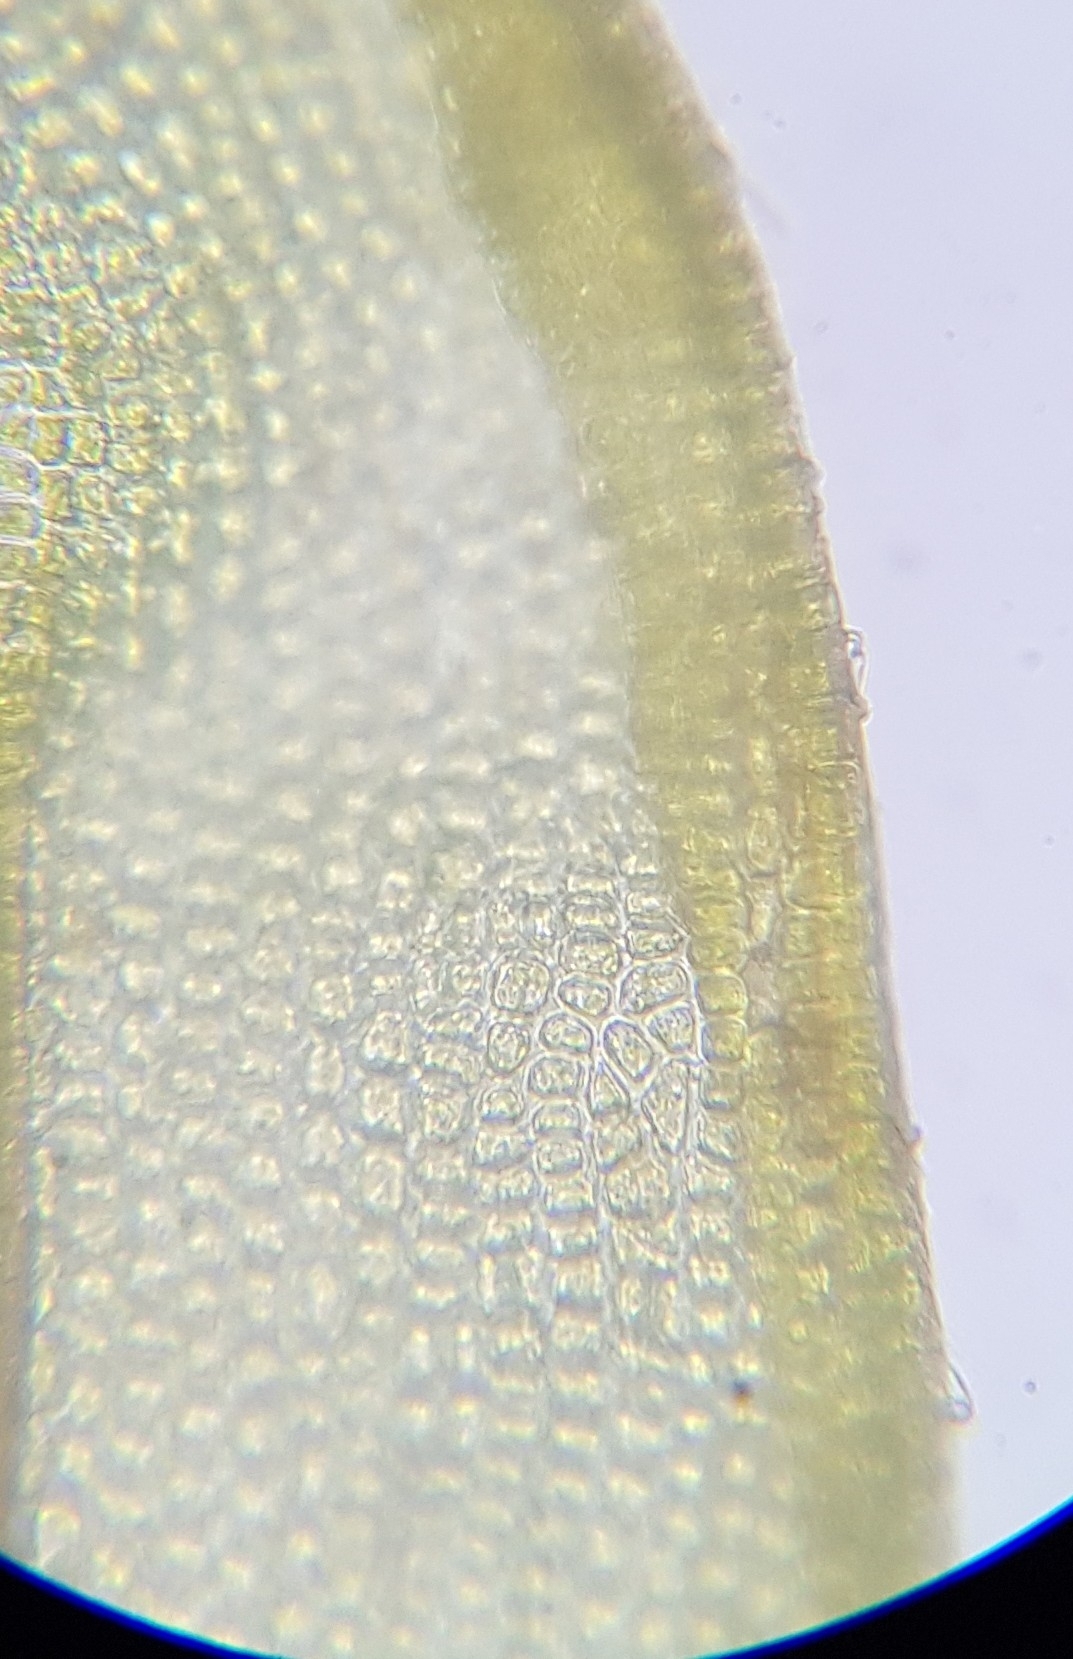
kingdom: Plantae
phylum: Bryophyta
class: Bryopsida
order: Dicranales
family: Ditrichaceae
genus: Ceratodon
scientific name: Ceratodon purpureus
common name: Redshank
